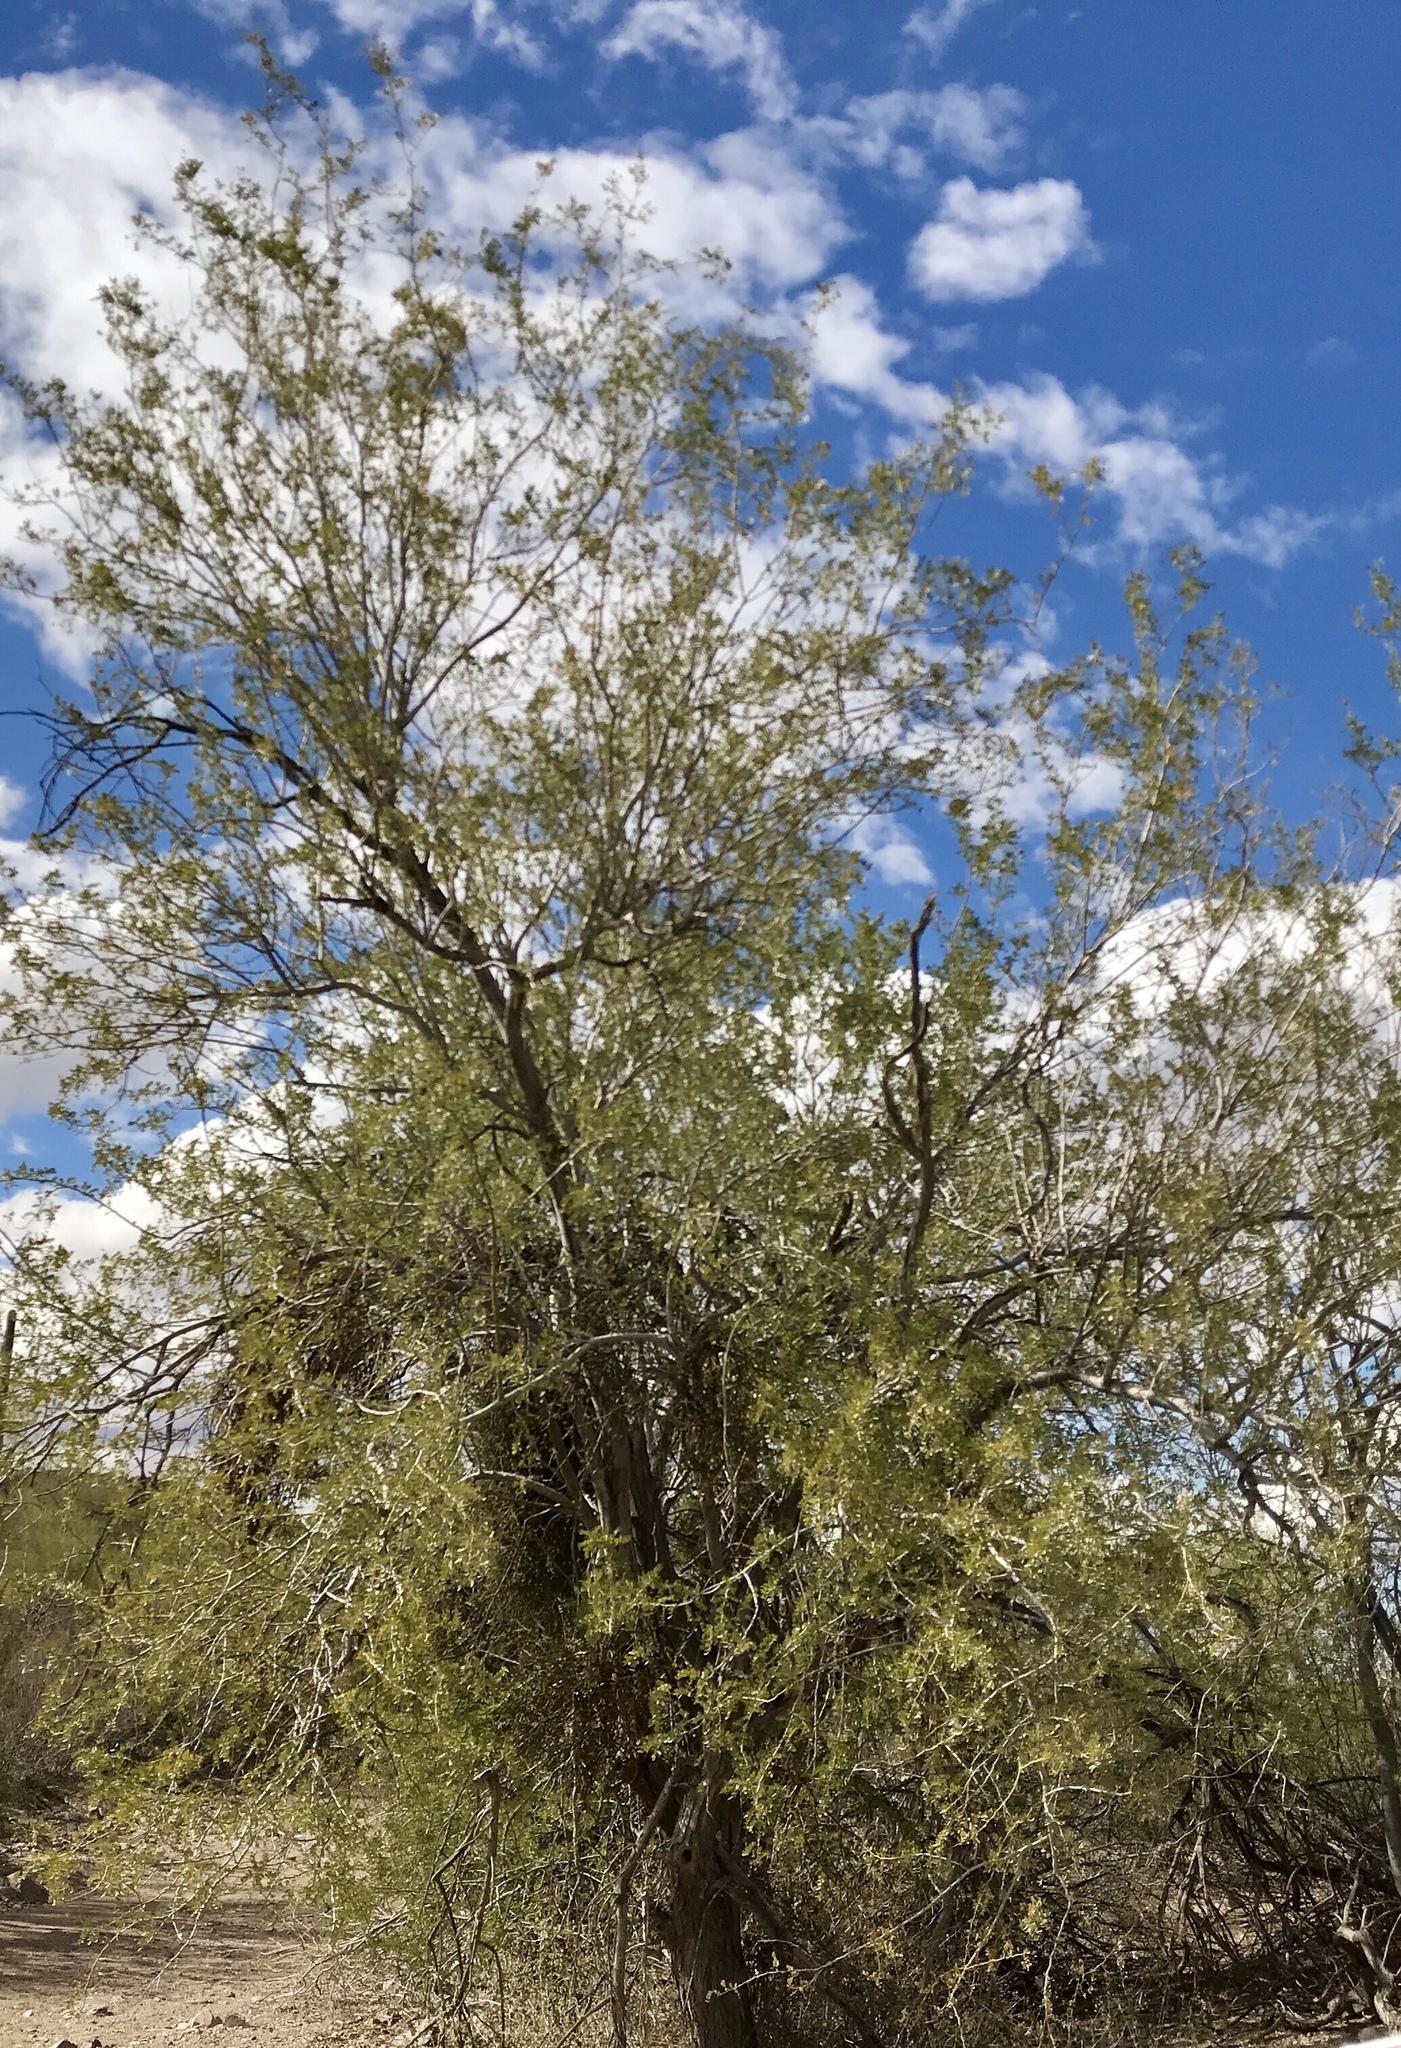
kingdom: Plantae
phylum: Tracheophyta
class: Magnoliopsida
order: Fabales
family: Fabaceae
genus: Olneya
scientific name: Olneya tesota
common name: Desert ironwood
